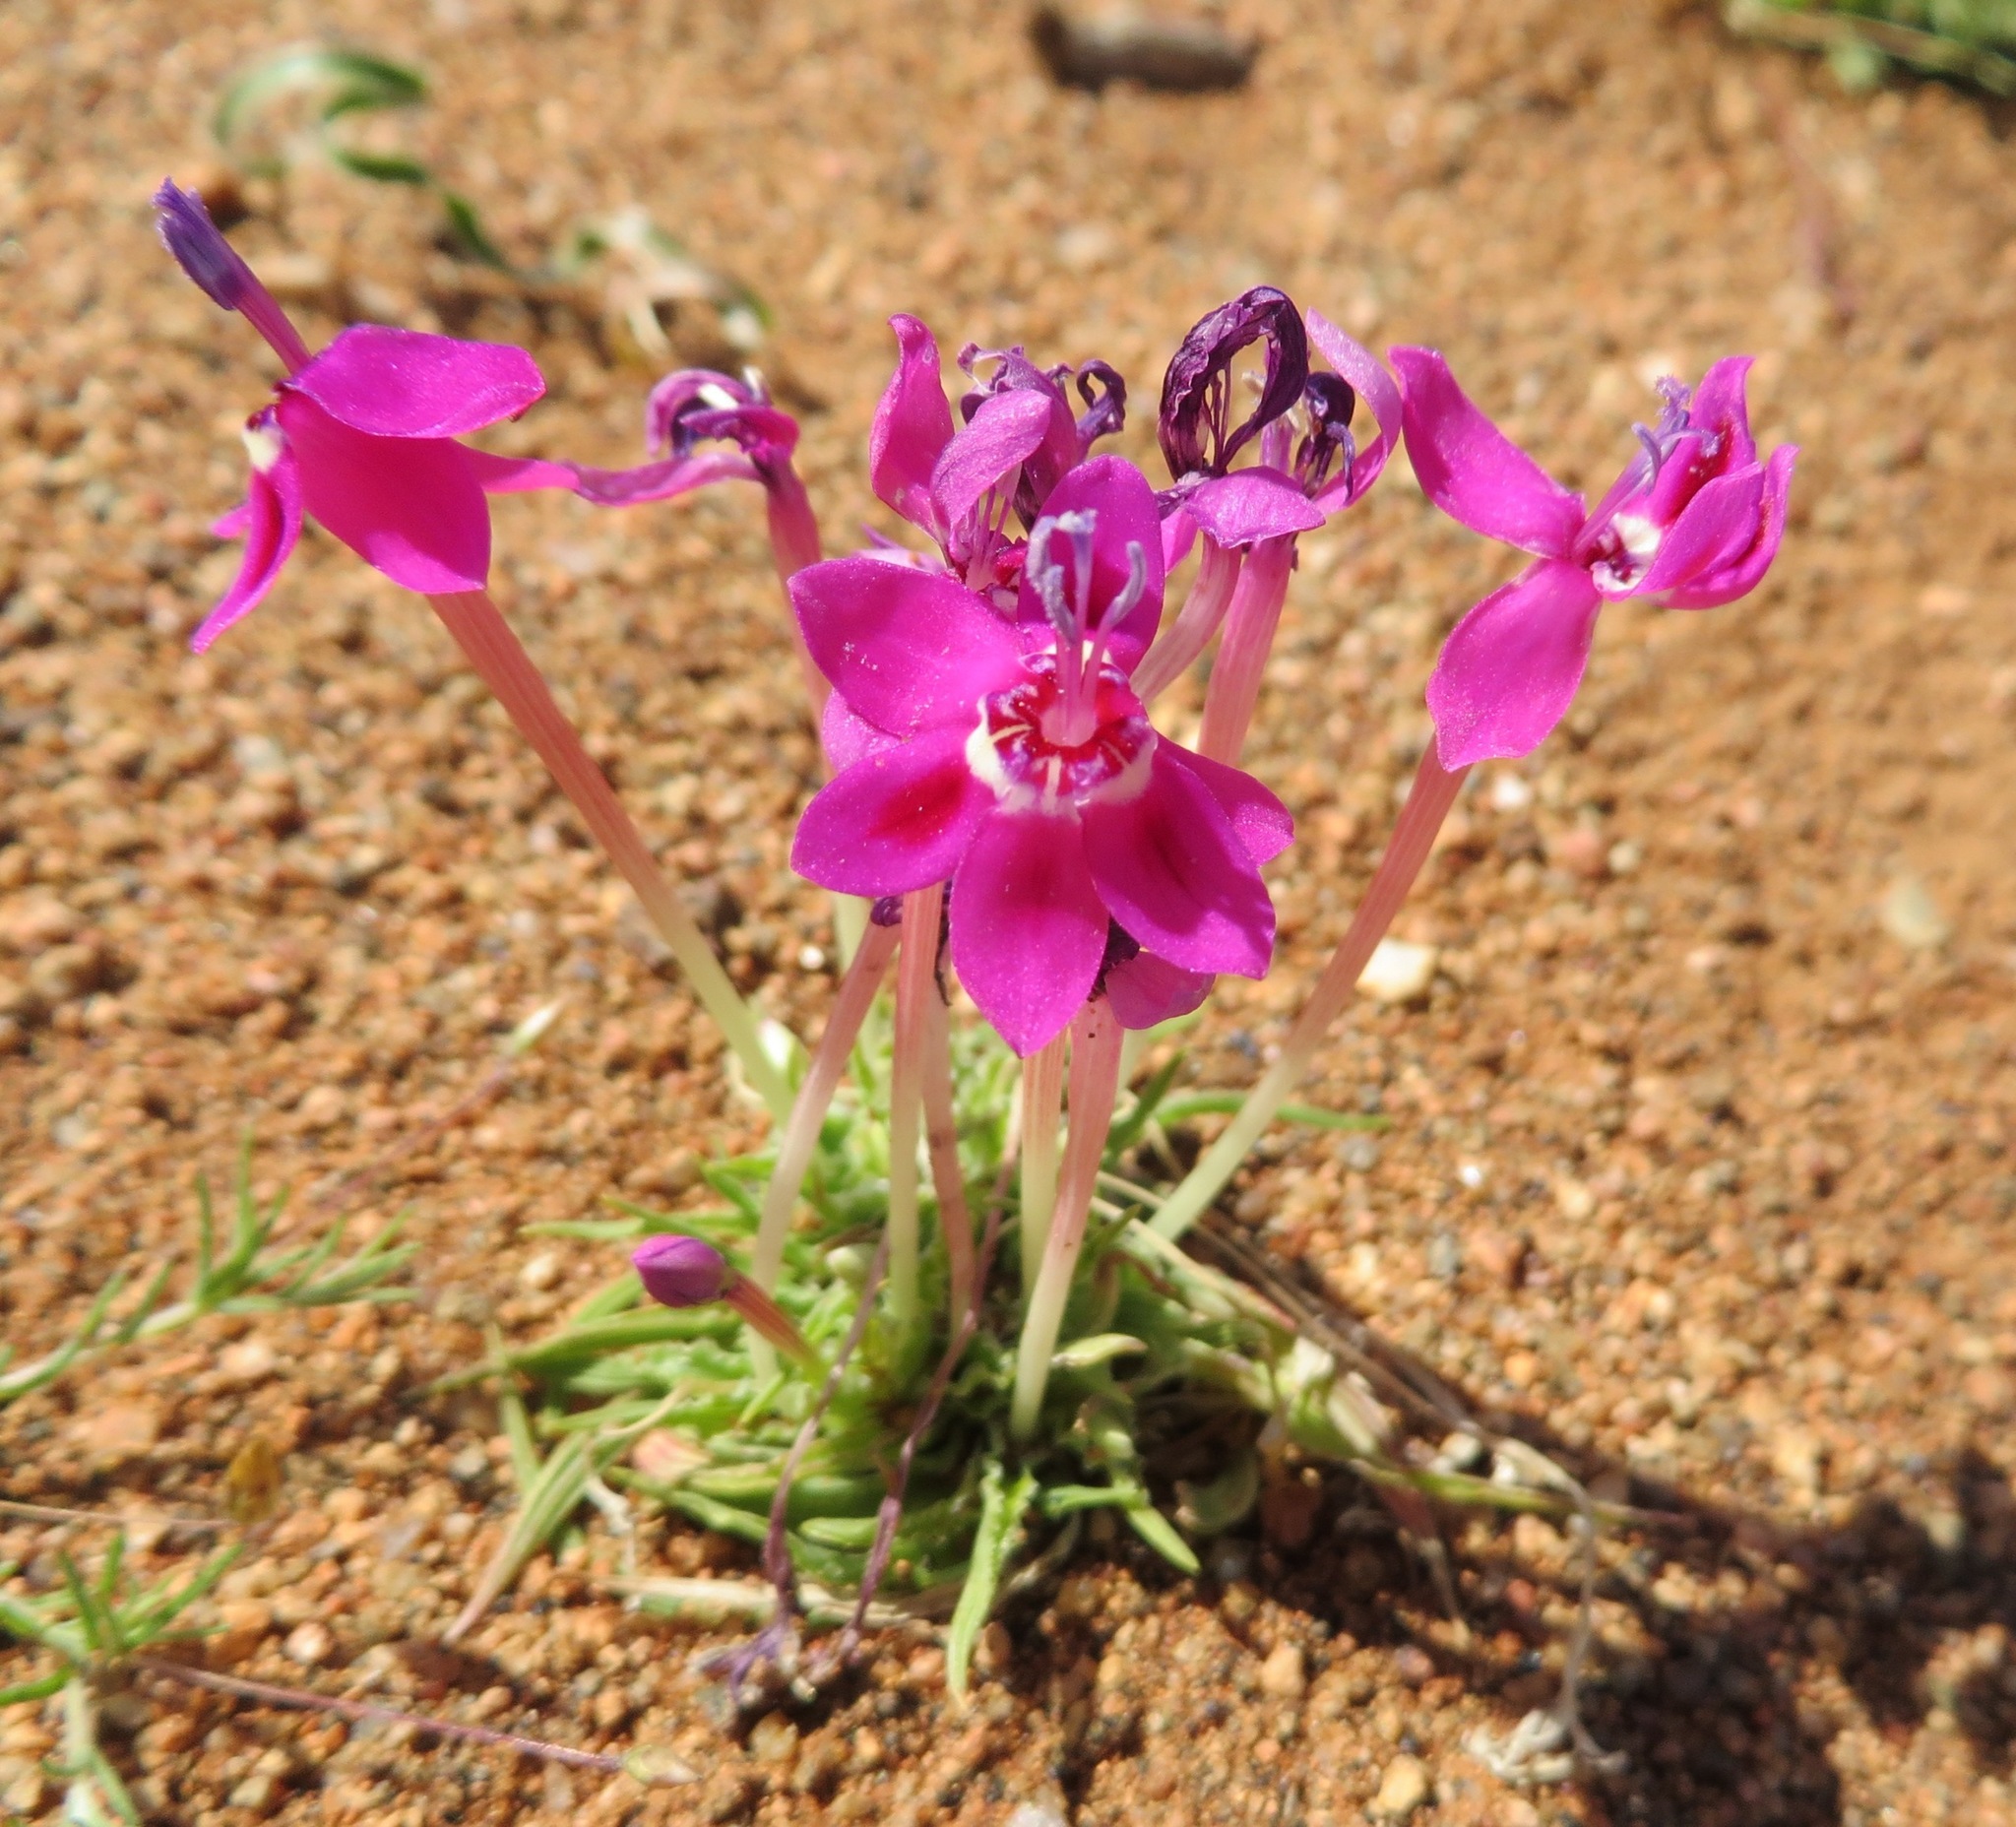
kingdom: Plantae
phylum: Tracheophyta
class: Liliopsida
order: Asparagales
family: Iridaceae
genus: Lapeirousia
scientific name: Lapeirousia silenoides
